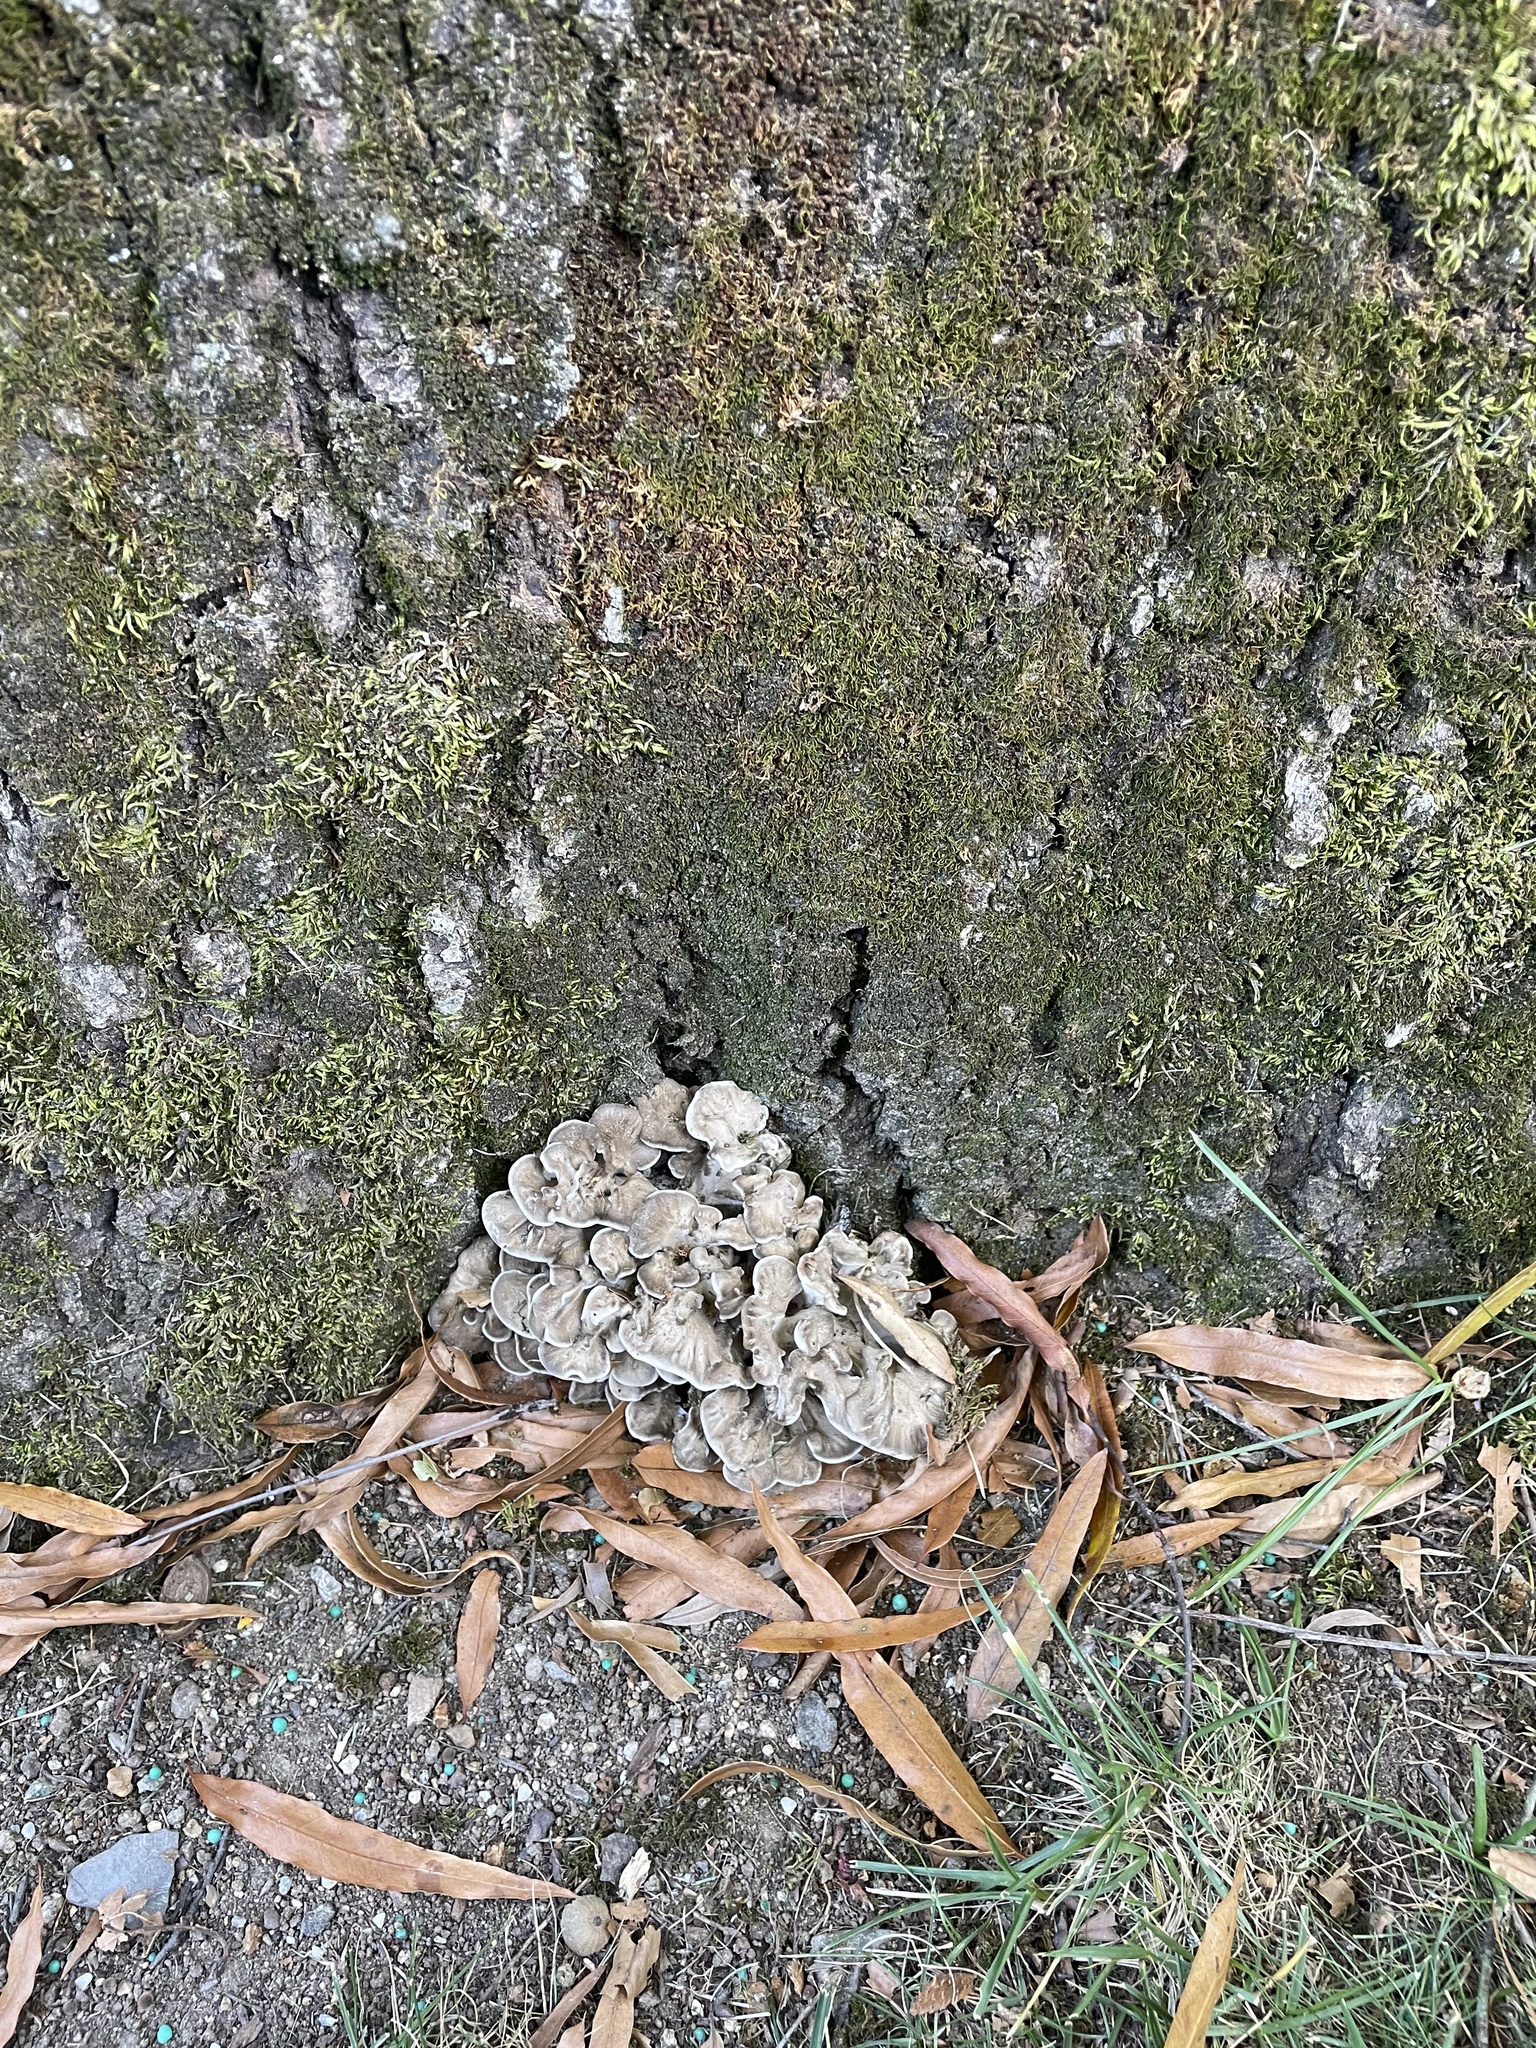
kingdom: Fungi
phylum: Basidiomycota
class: Agaricomycetes
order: Polyporales
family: Grifolaceae
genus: Grifola
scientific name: Grifola frondosa
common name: Hen of the woods
